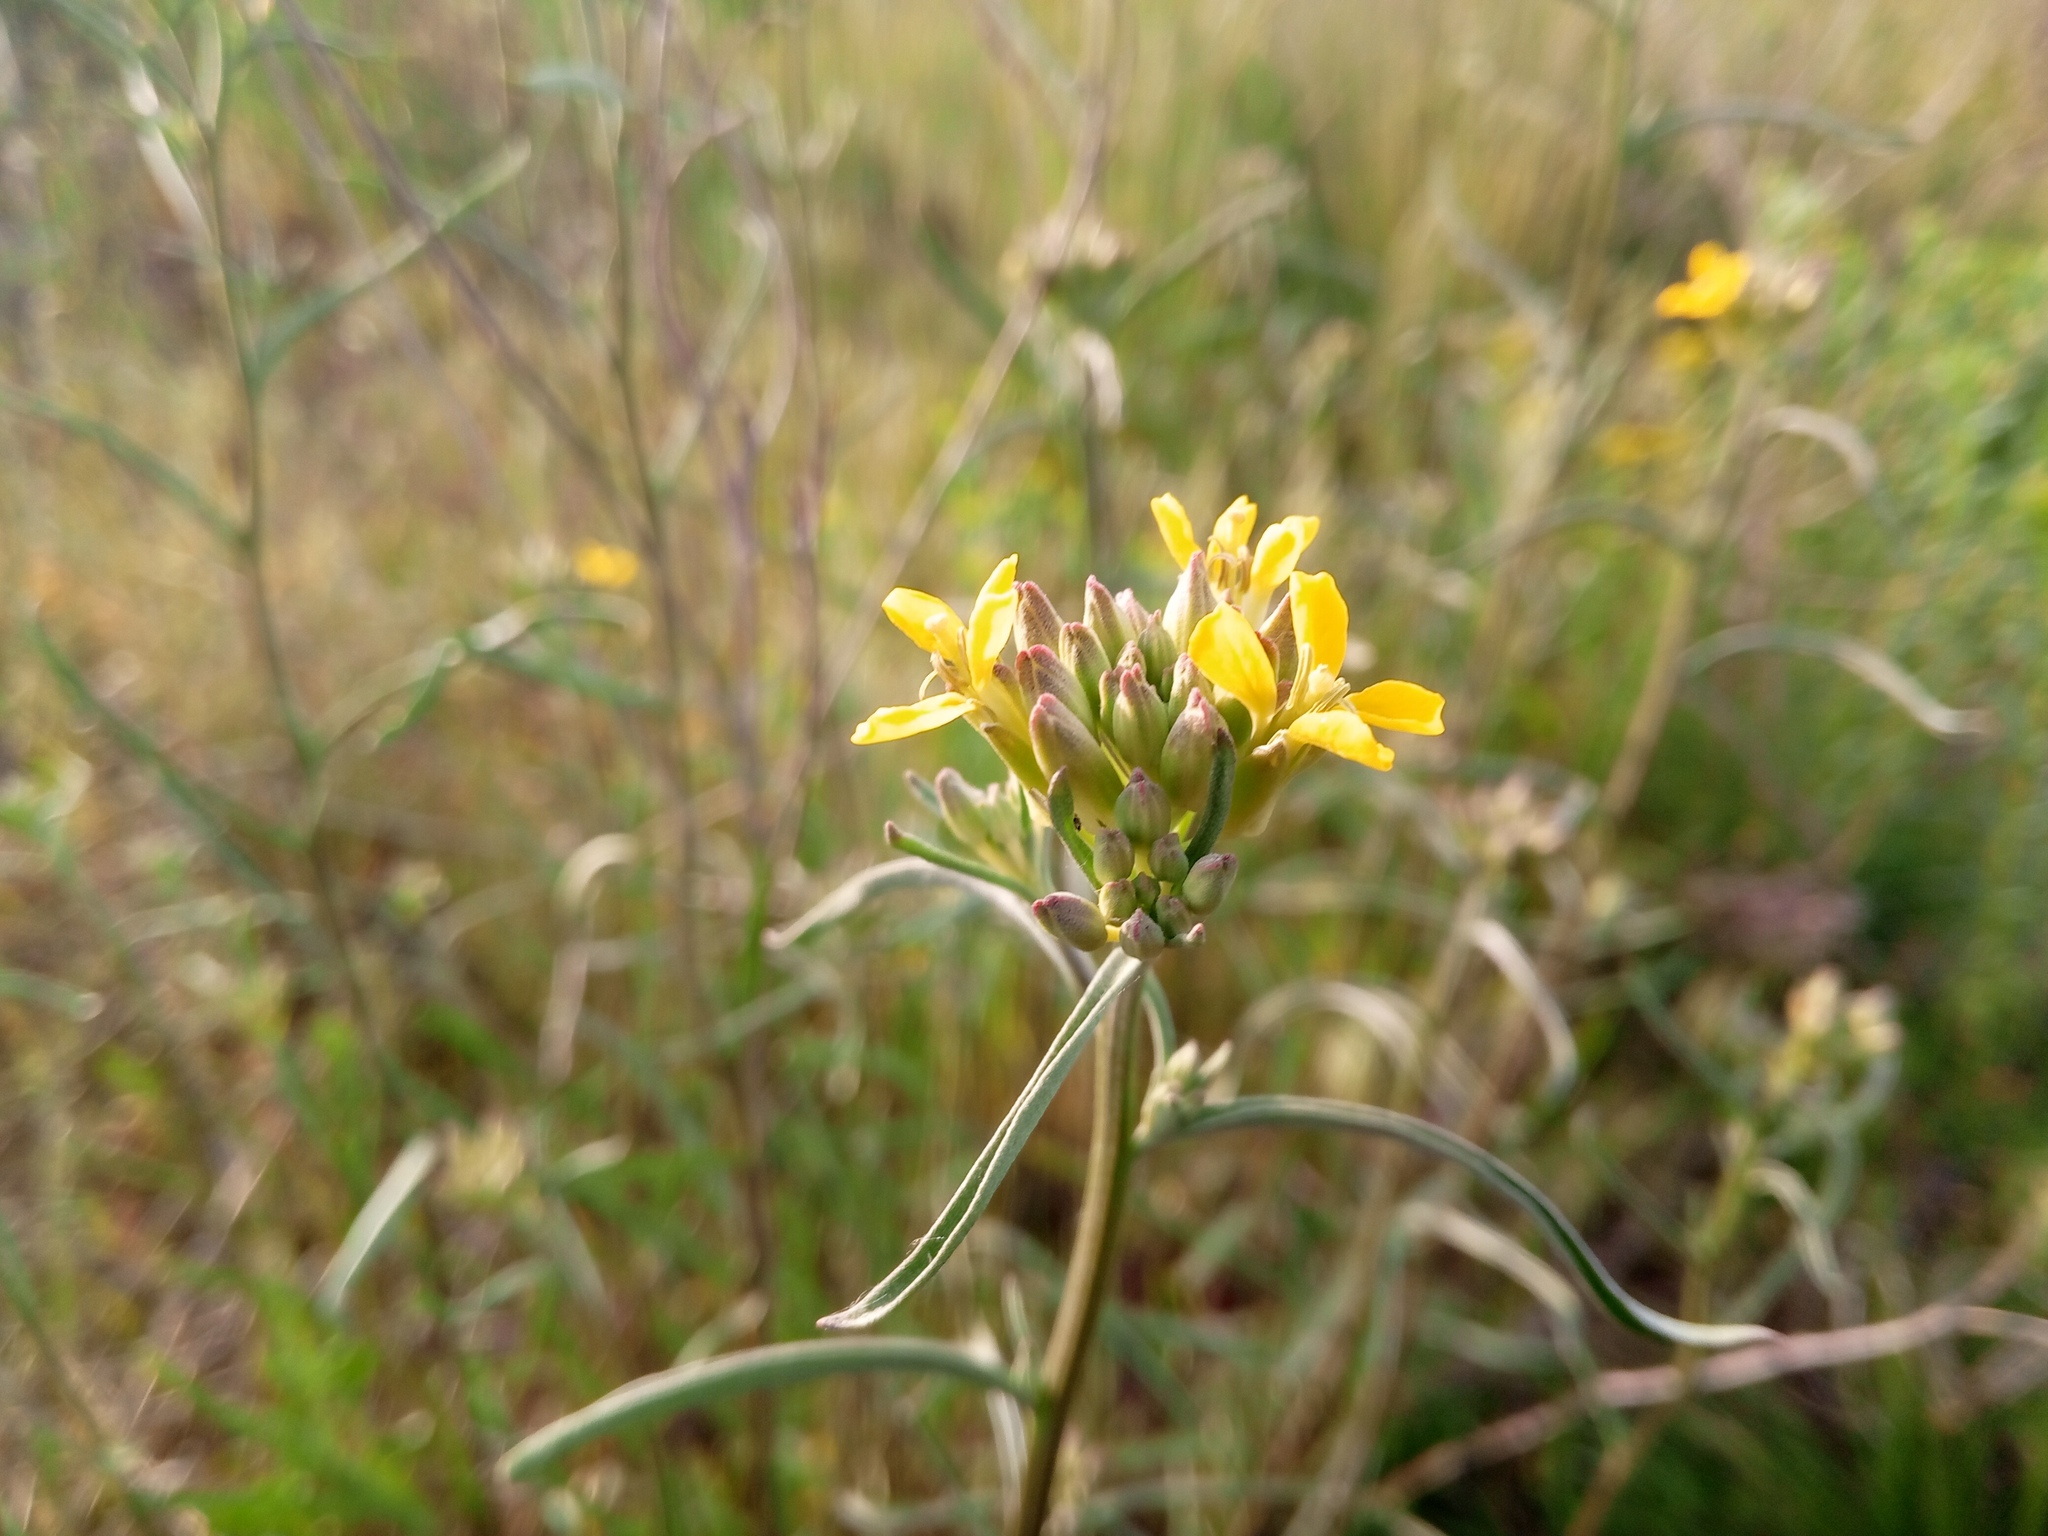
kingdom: Plantae
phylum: Tracheophyta
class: Magnoliopsida
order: Brassicales
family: Brassicaceae
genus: Erysimum
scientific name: Erysimum diffusum
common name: Diffuse wallflower
